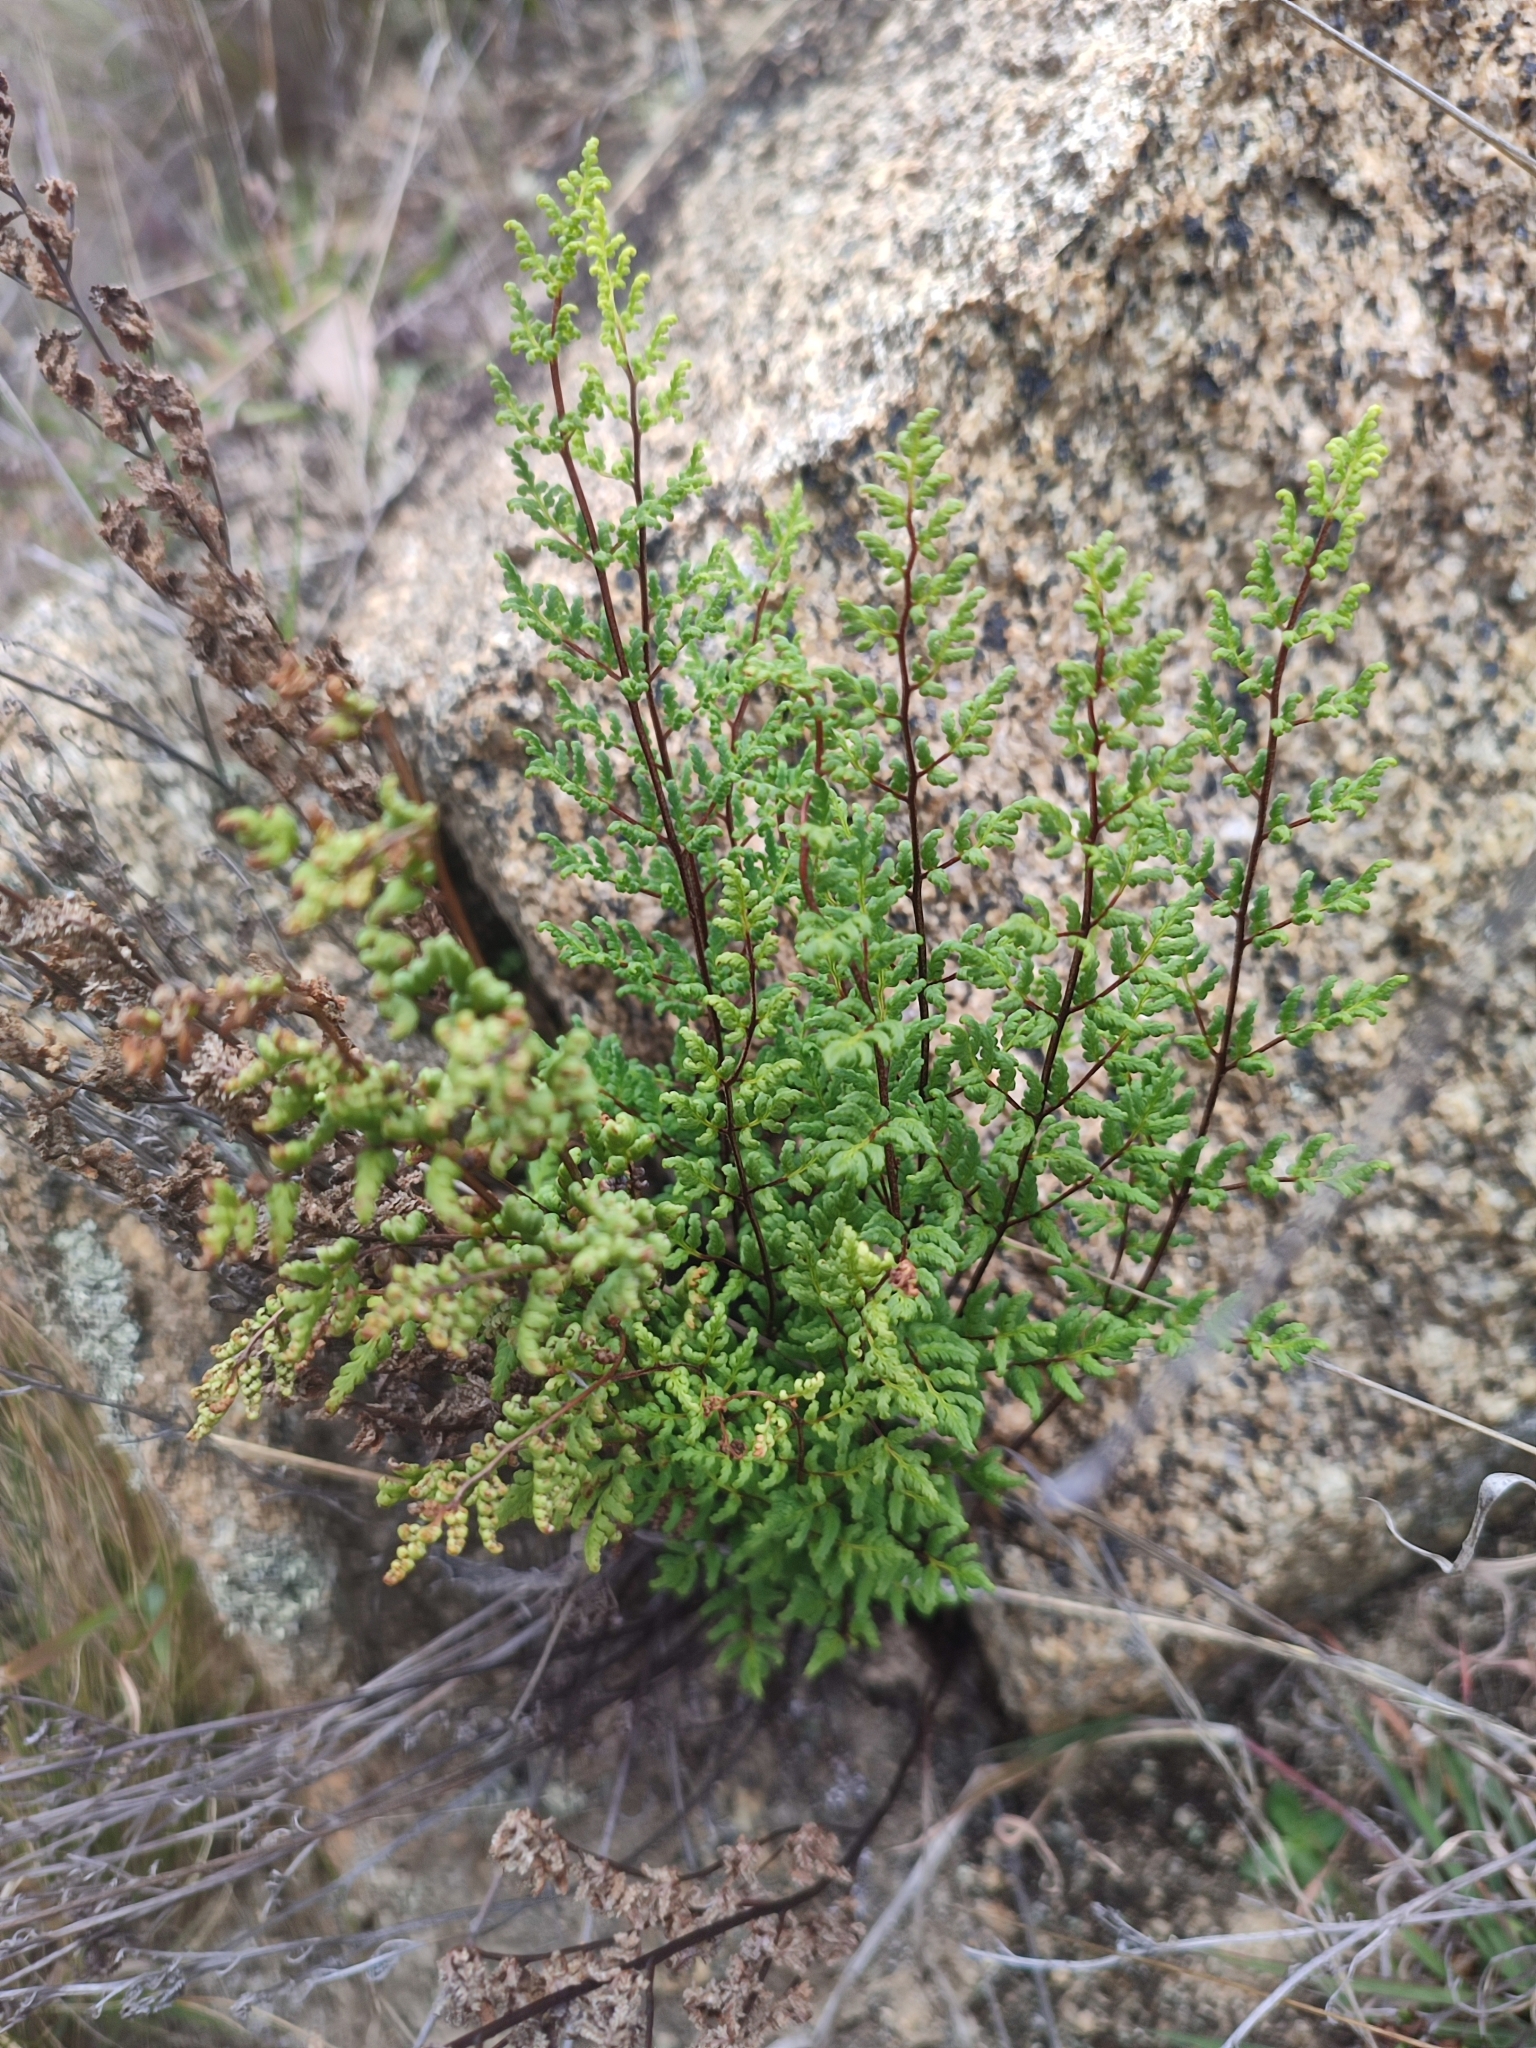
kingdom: Plantae
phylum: Tracheophyta
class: Polypodiopsida
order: Polypodiales
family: Pteridaceae
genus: Cheilanthes
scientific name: Cheilanthes sieberi
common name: Mulga fern
